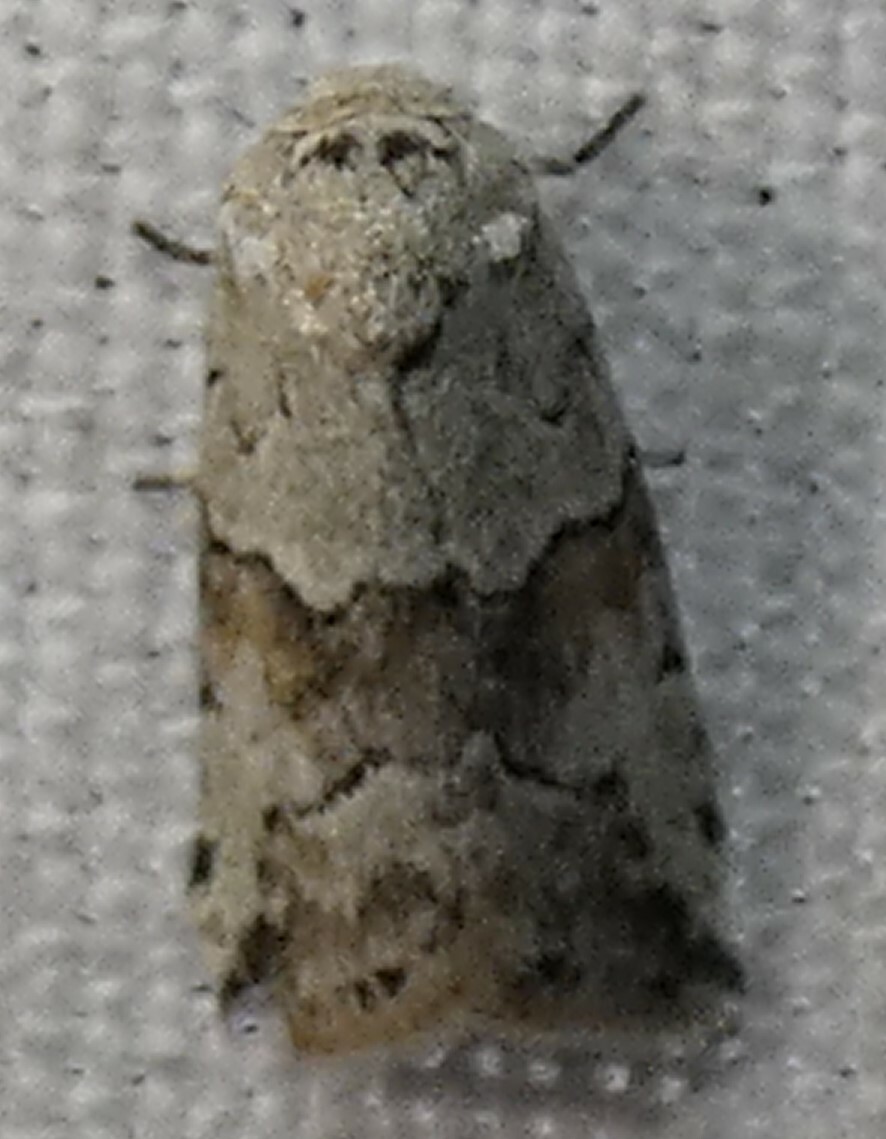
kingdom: Animalia
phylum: Arthropoda
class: Insecta
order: Lepidoptera
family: Nolidae
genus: Afrida
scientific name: Afrida ydatodes
